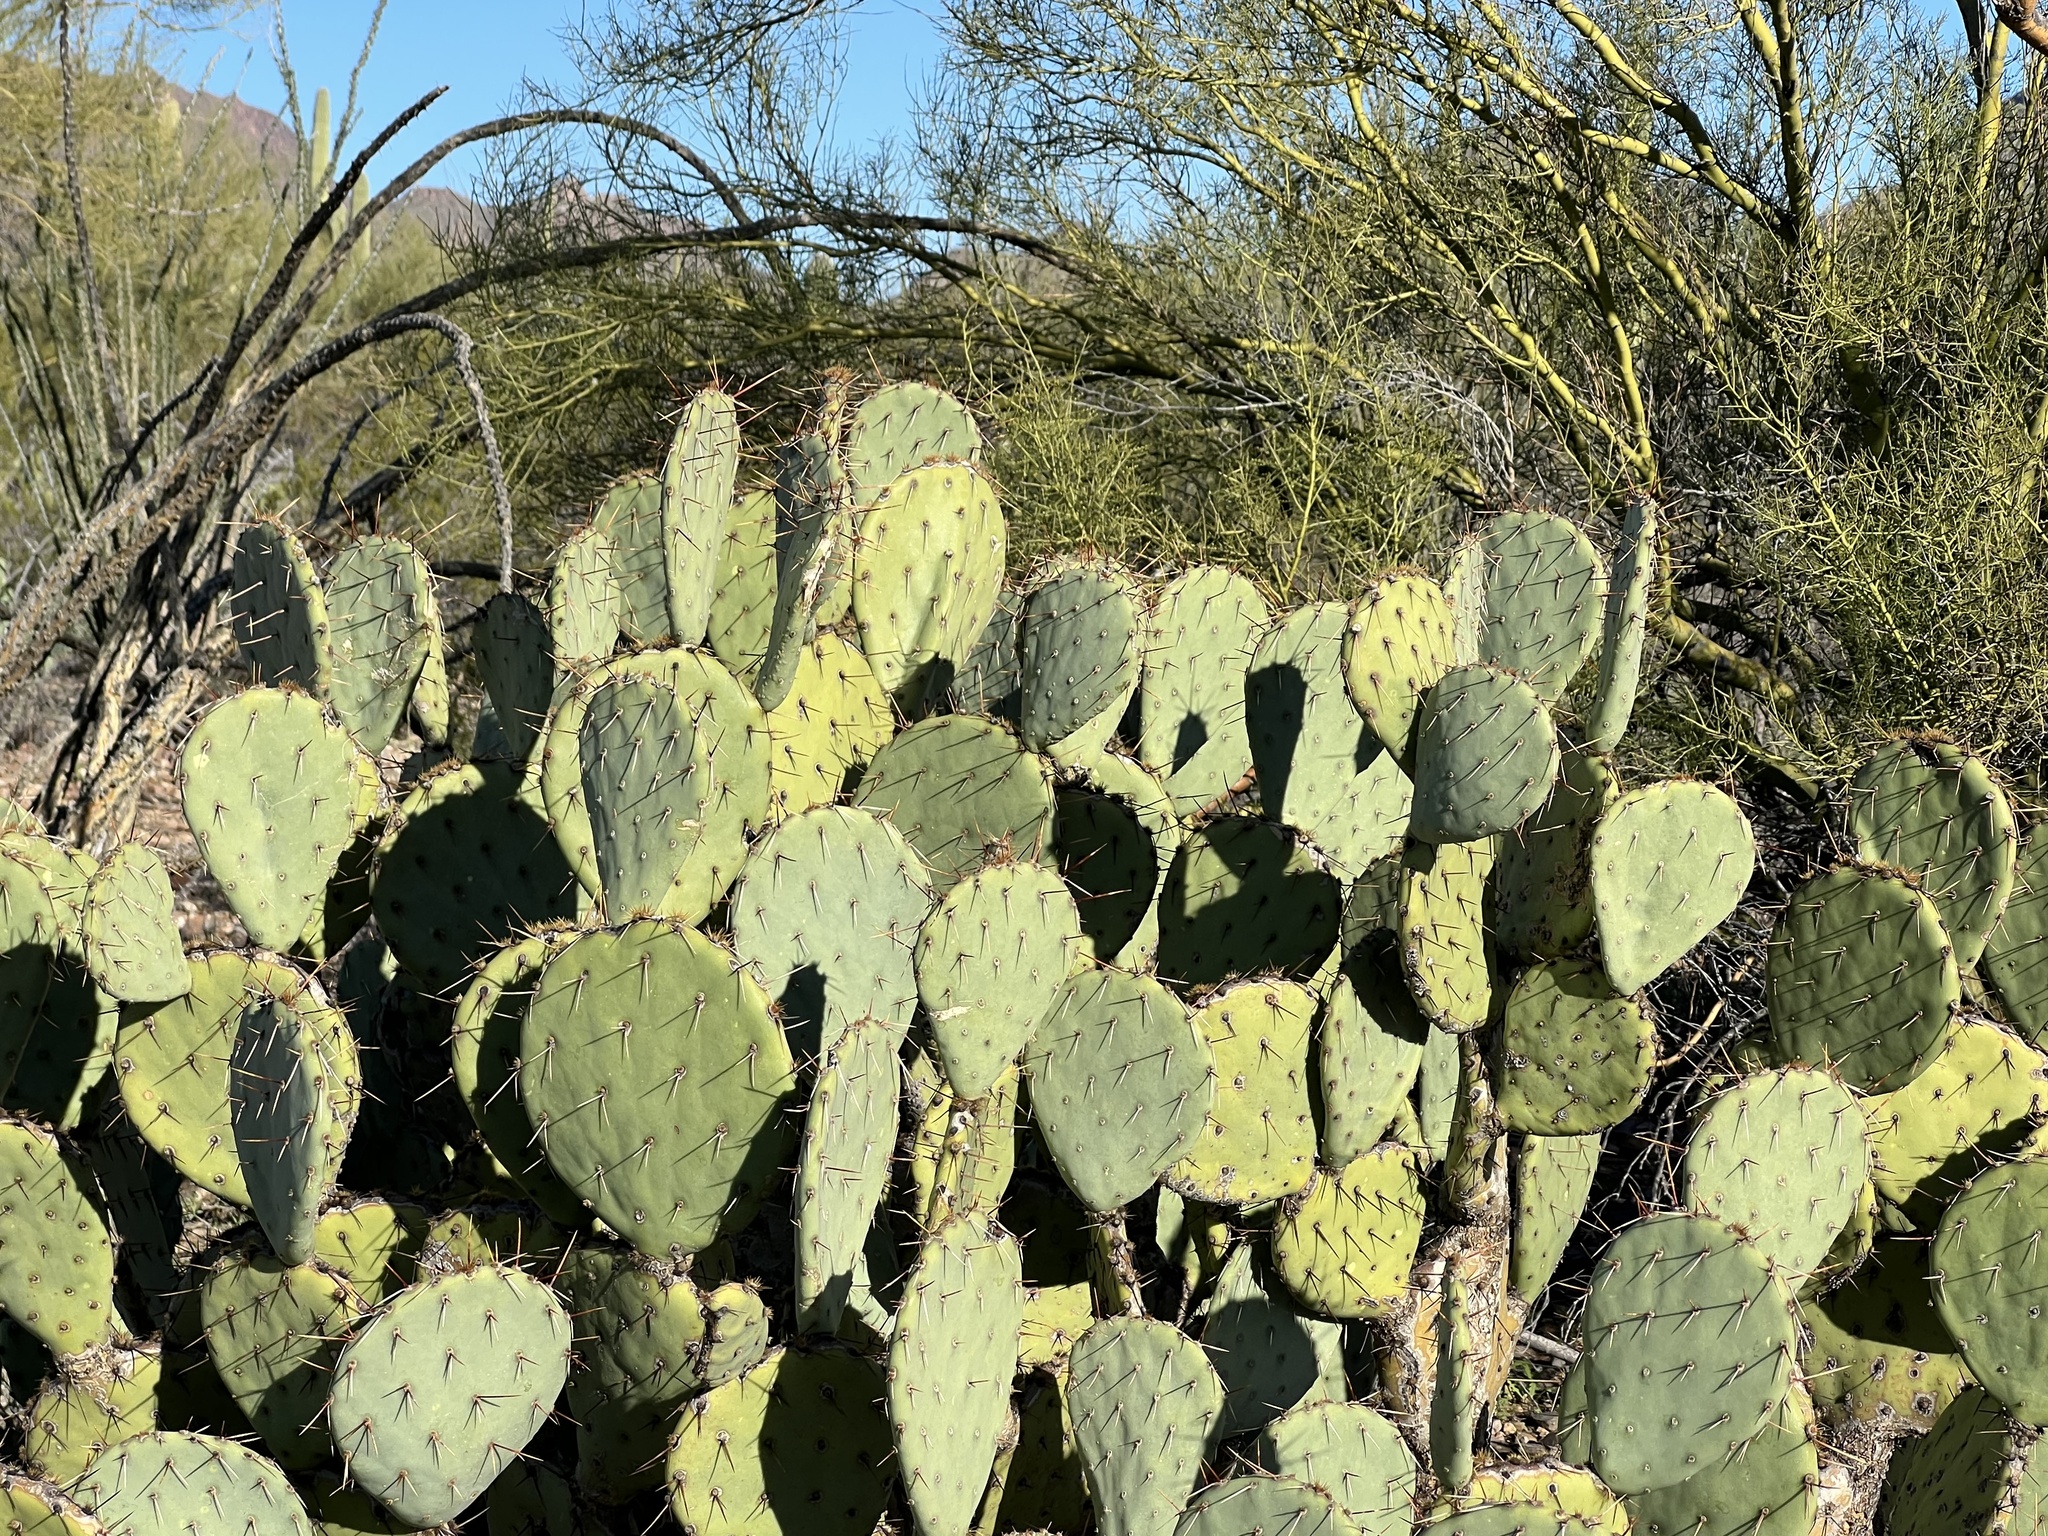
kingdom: Plantae
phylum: Tracheophyta
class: Magnoliopsida
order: Caryophyllales
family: Cactaceae
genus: Opuntia
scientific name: Opuntia engelmannii
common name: Cactus-apple
